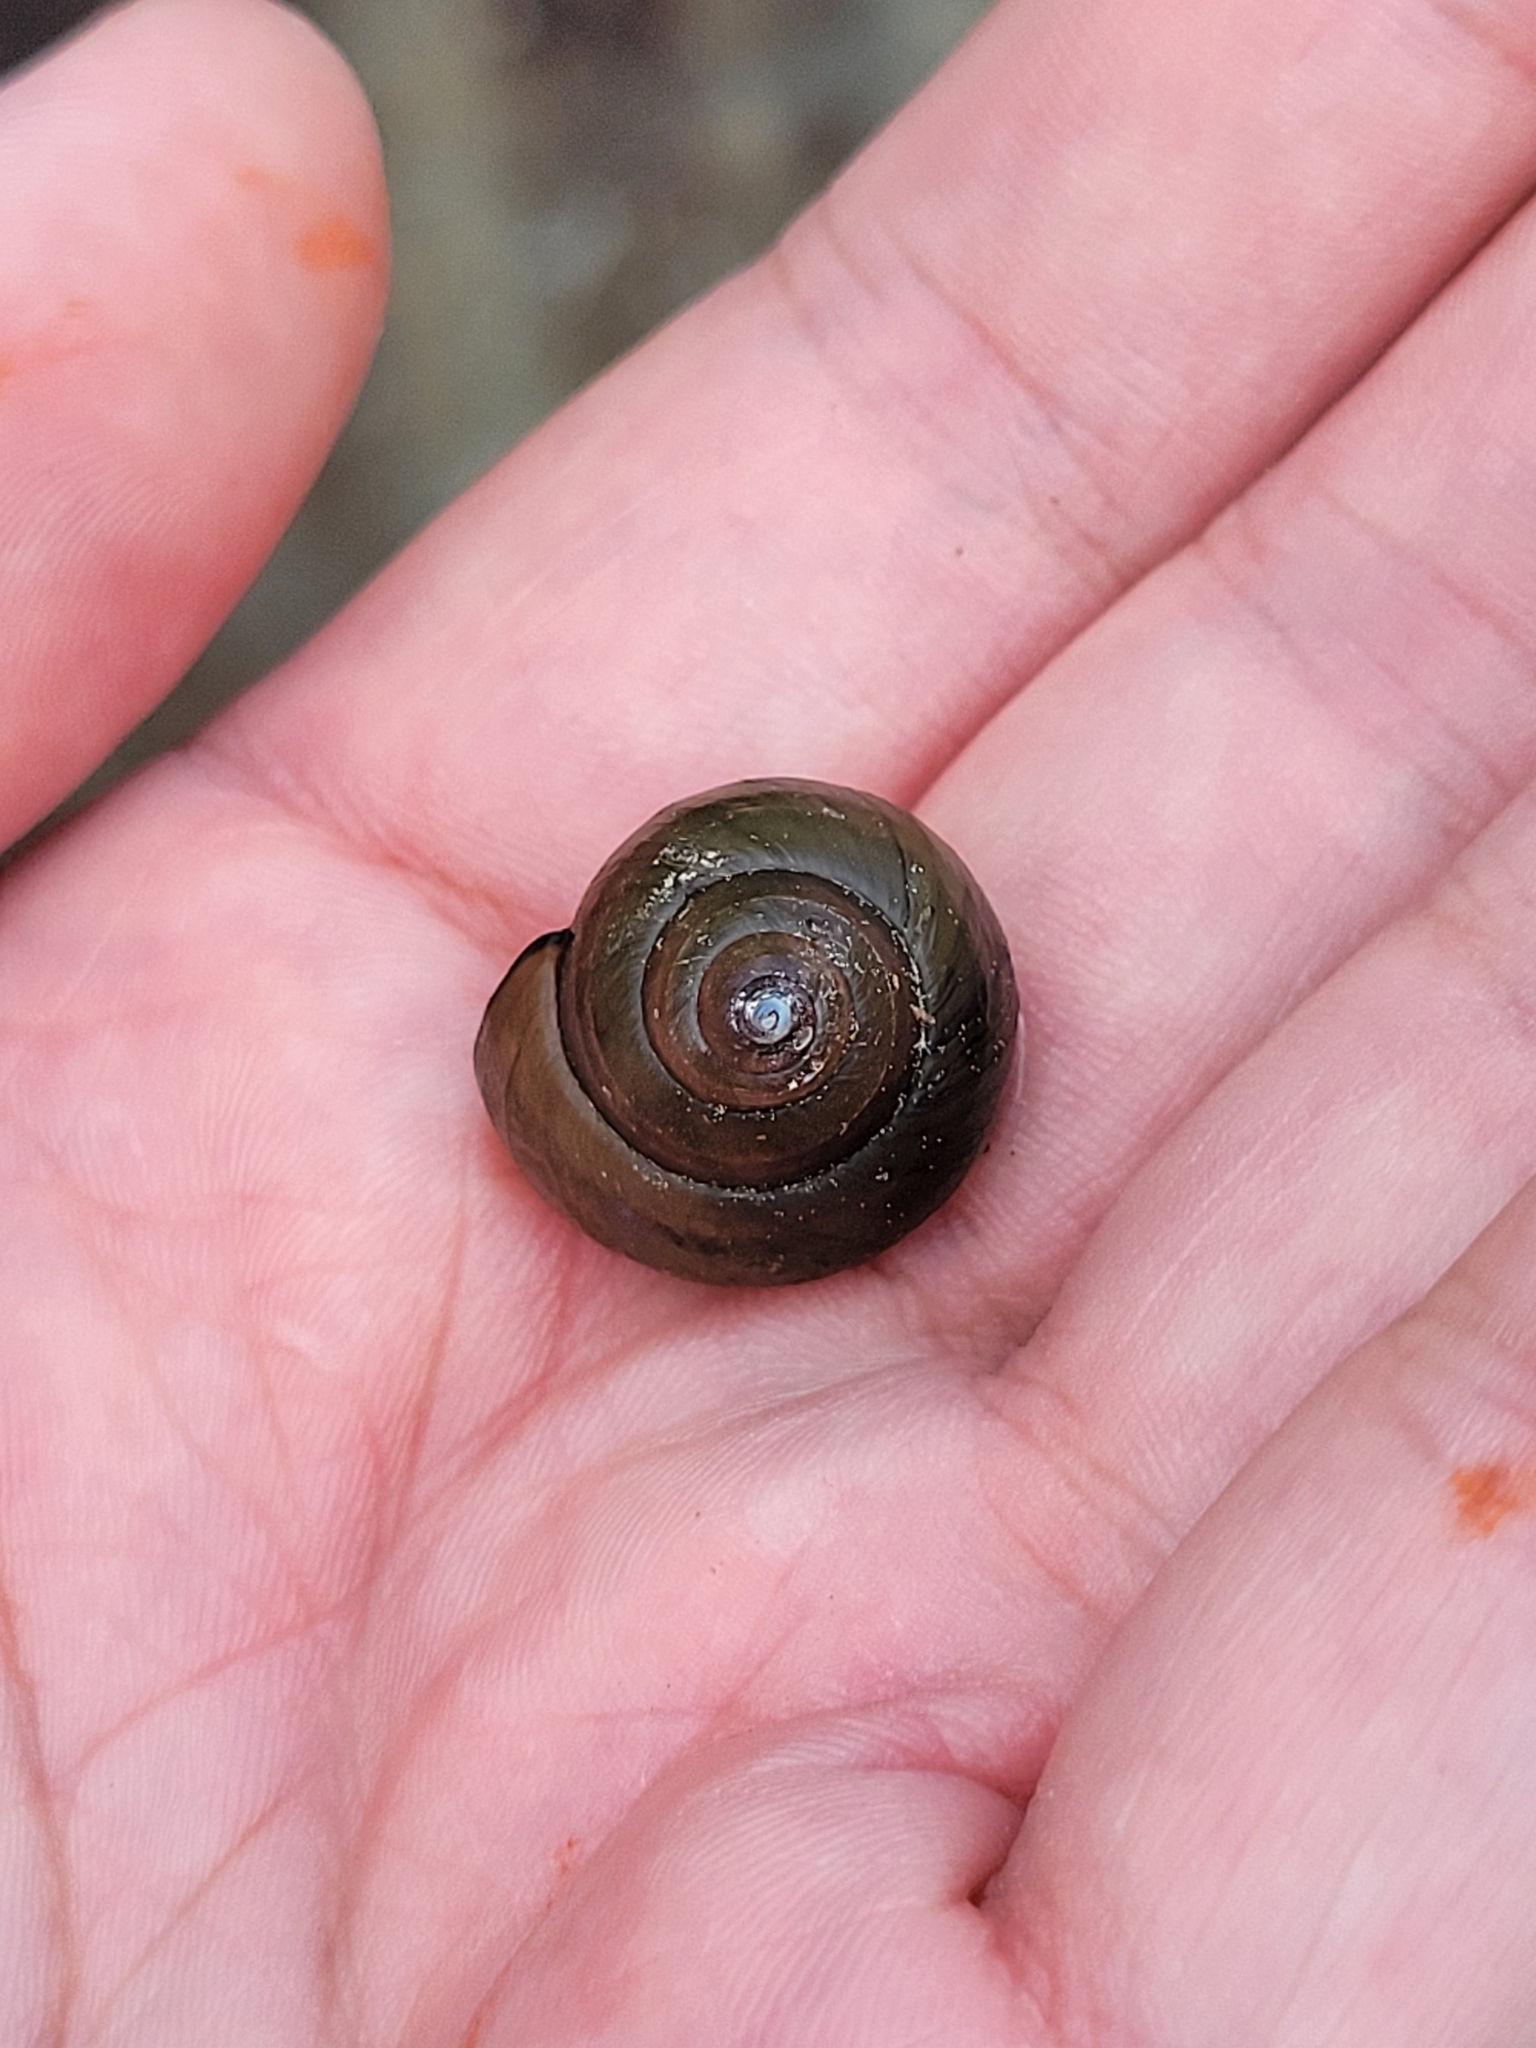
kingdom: Animalia
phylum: Mollusca
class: Gastropoda
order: Architaenioglossa
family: Viviparidae
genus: Cipangopaludina
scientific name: Cipangopaludina chinensis
